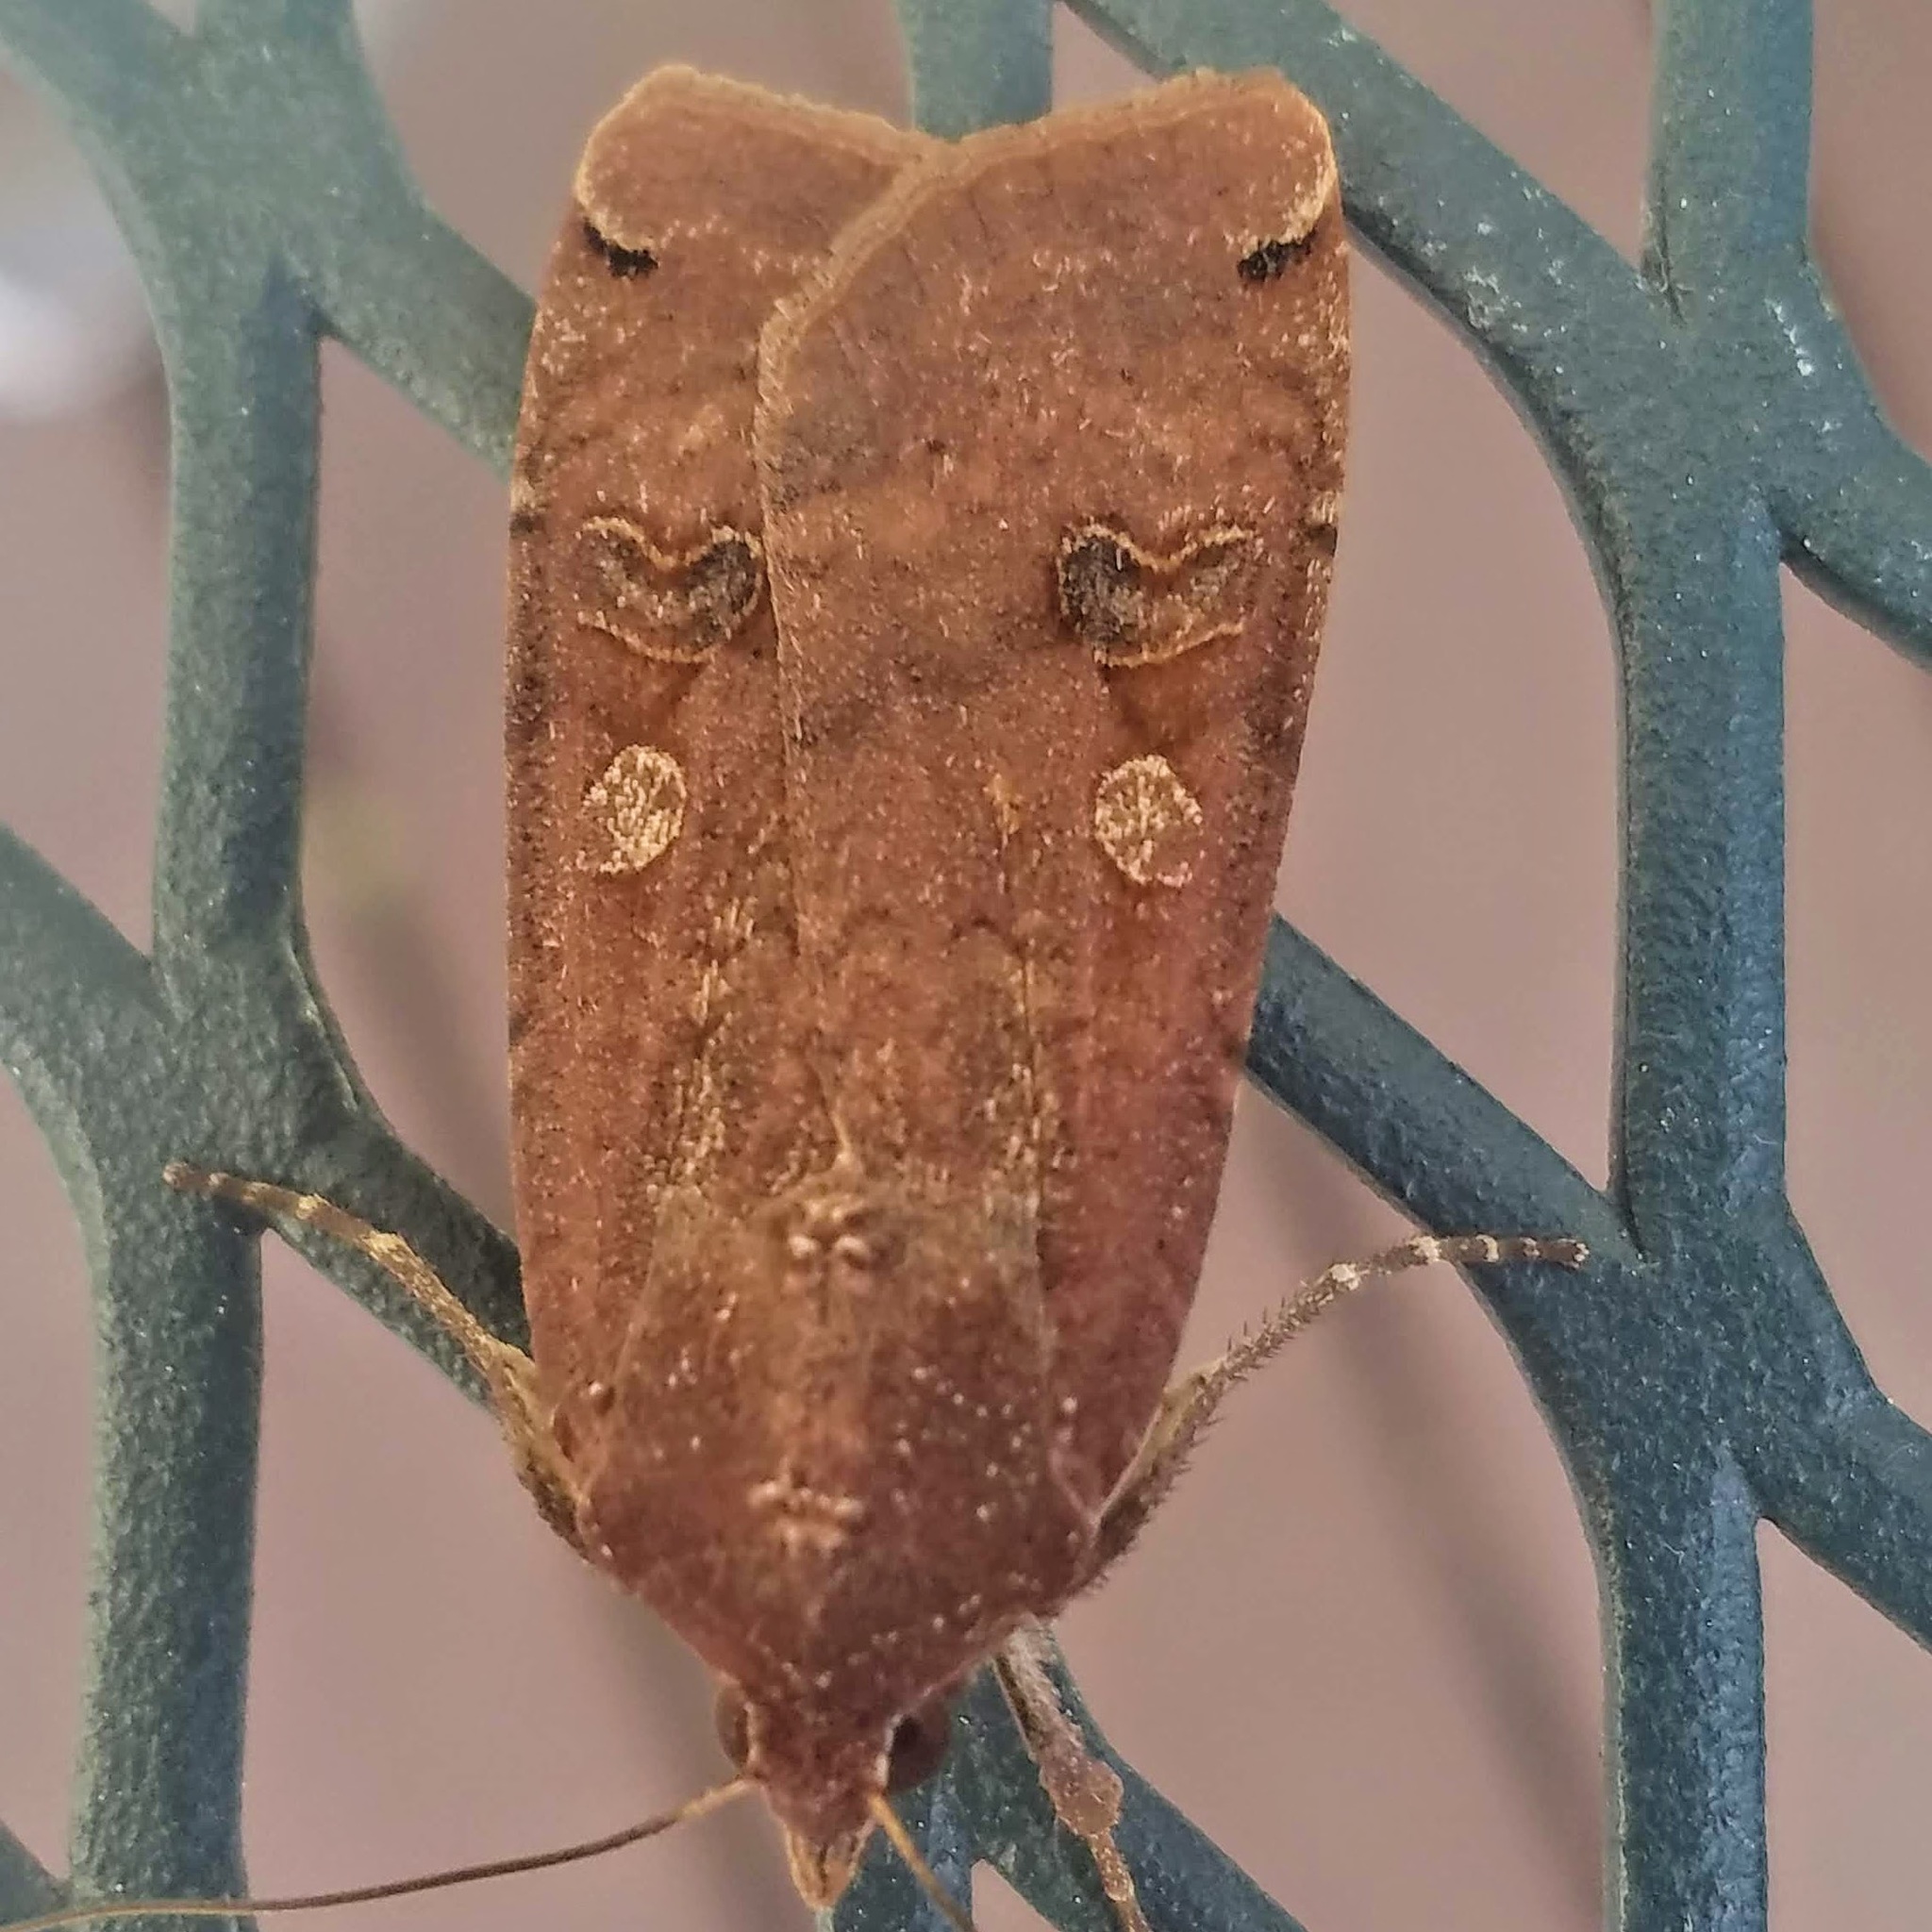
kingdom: Animalia
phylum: Arthropoda
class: Insecta
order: Lepidoptera
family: Noctuidae
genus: Noctua
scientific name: Noctua pronuba
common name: Large yellow underwing
